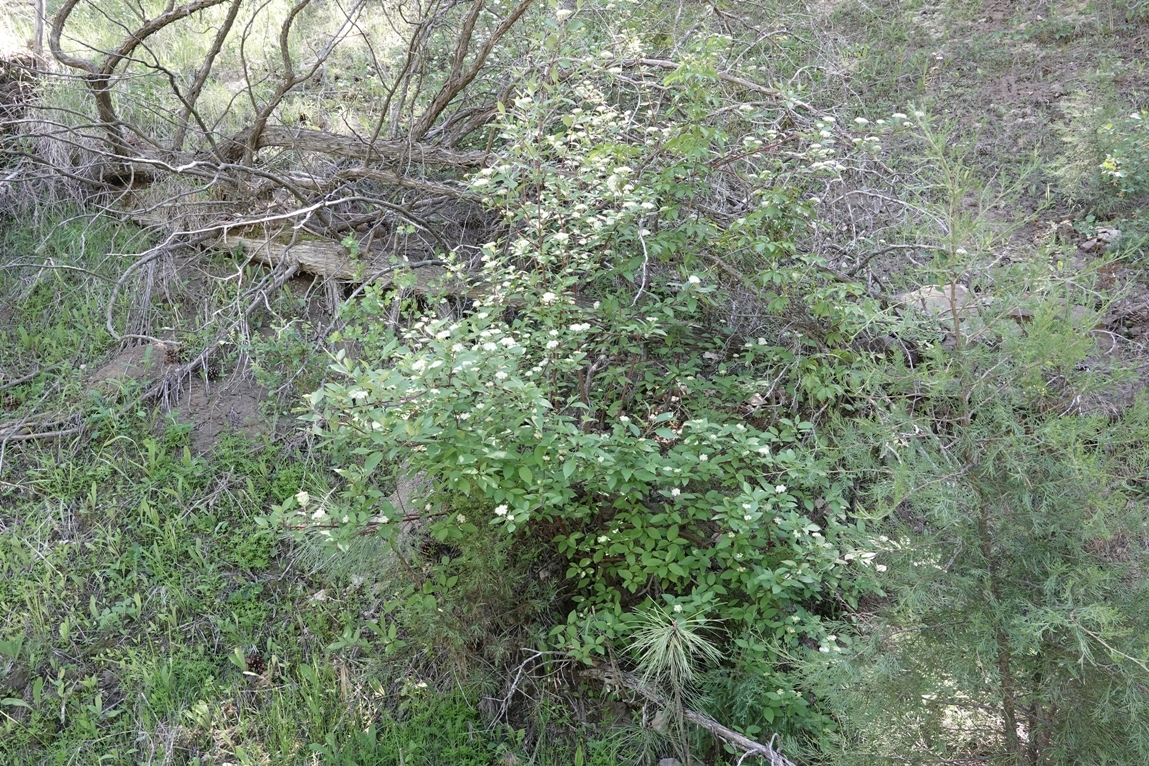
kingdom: Plantae
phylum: Tracheophyta
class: Magnoliopsida
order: Cornales
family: Cornaceae
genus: Cornus
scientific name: Cornus sericea
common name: Red-osier dogwood
